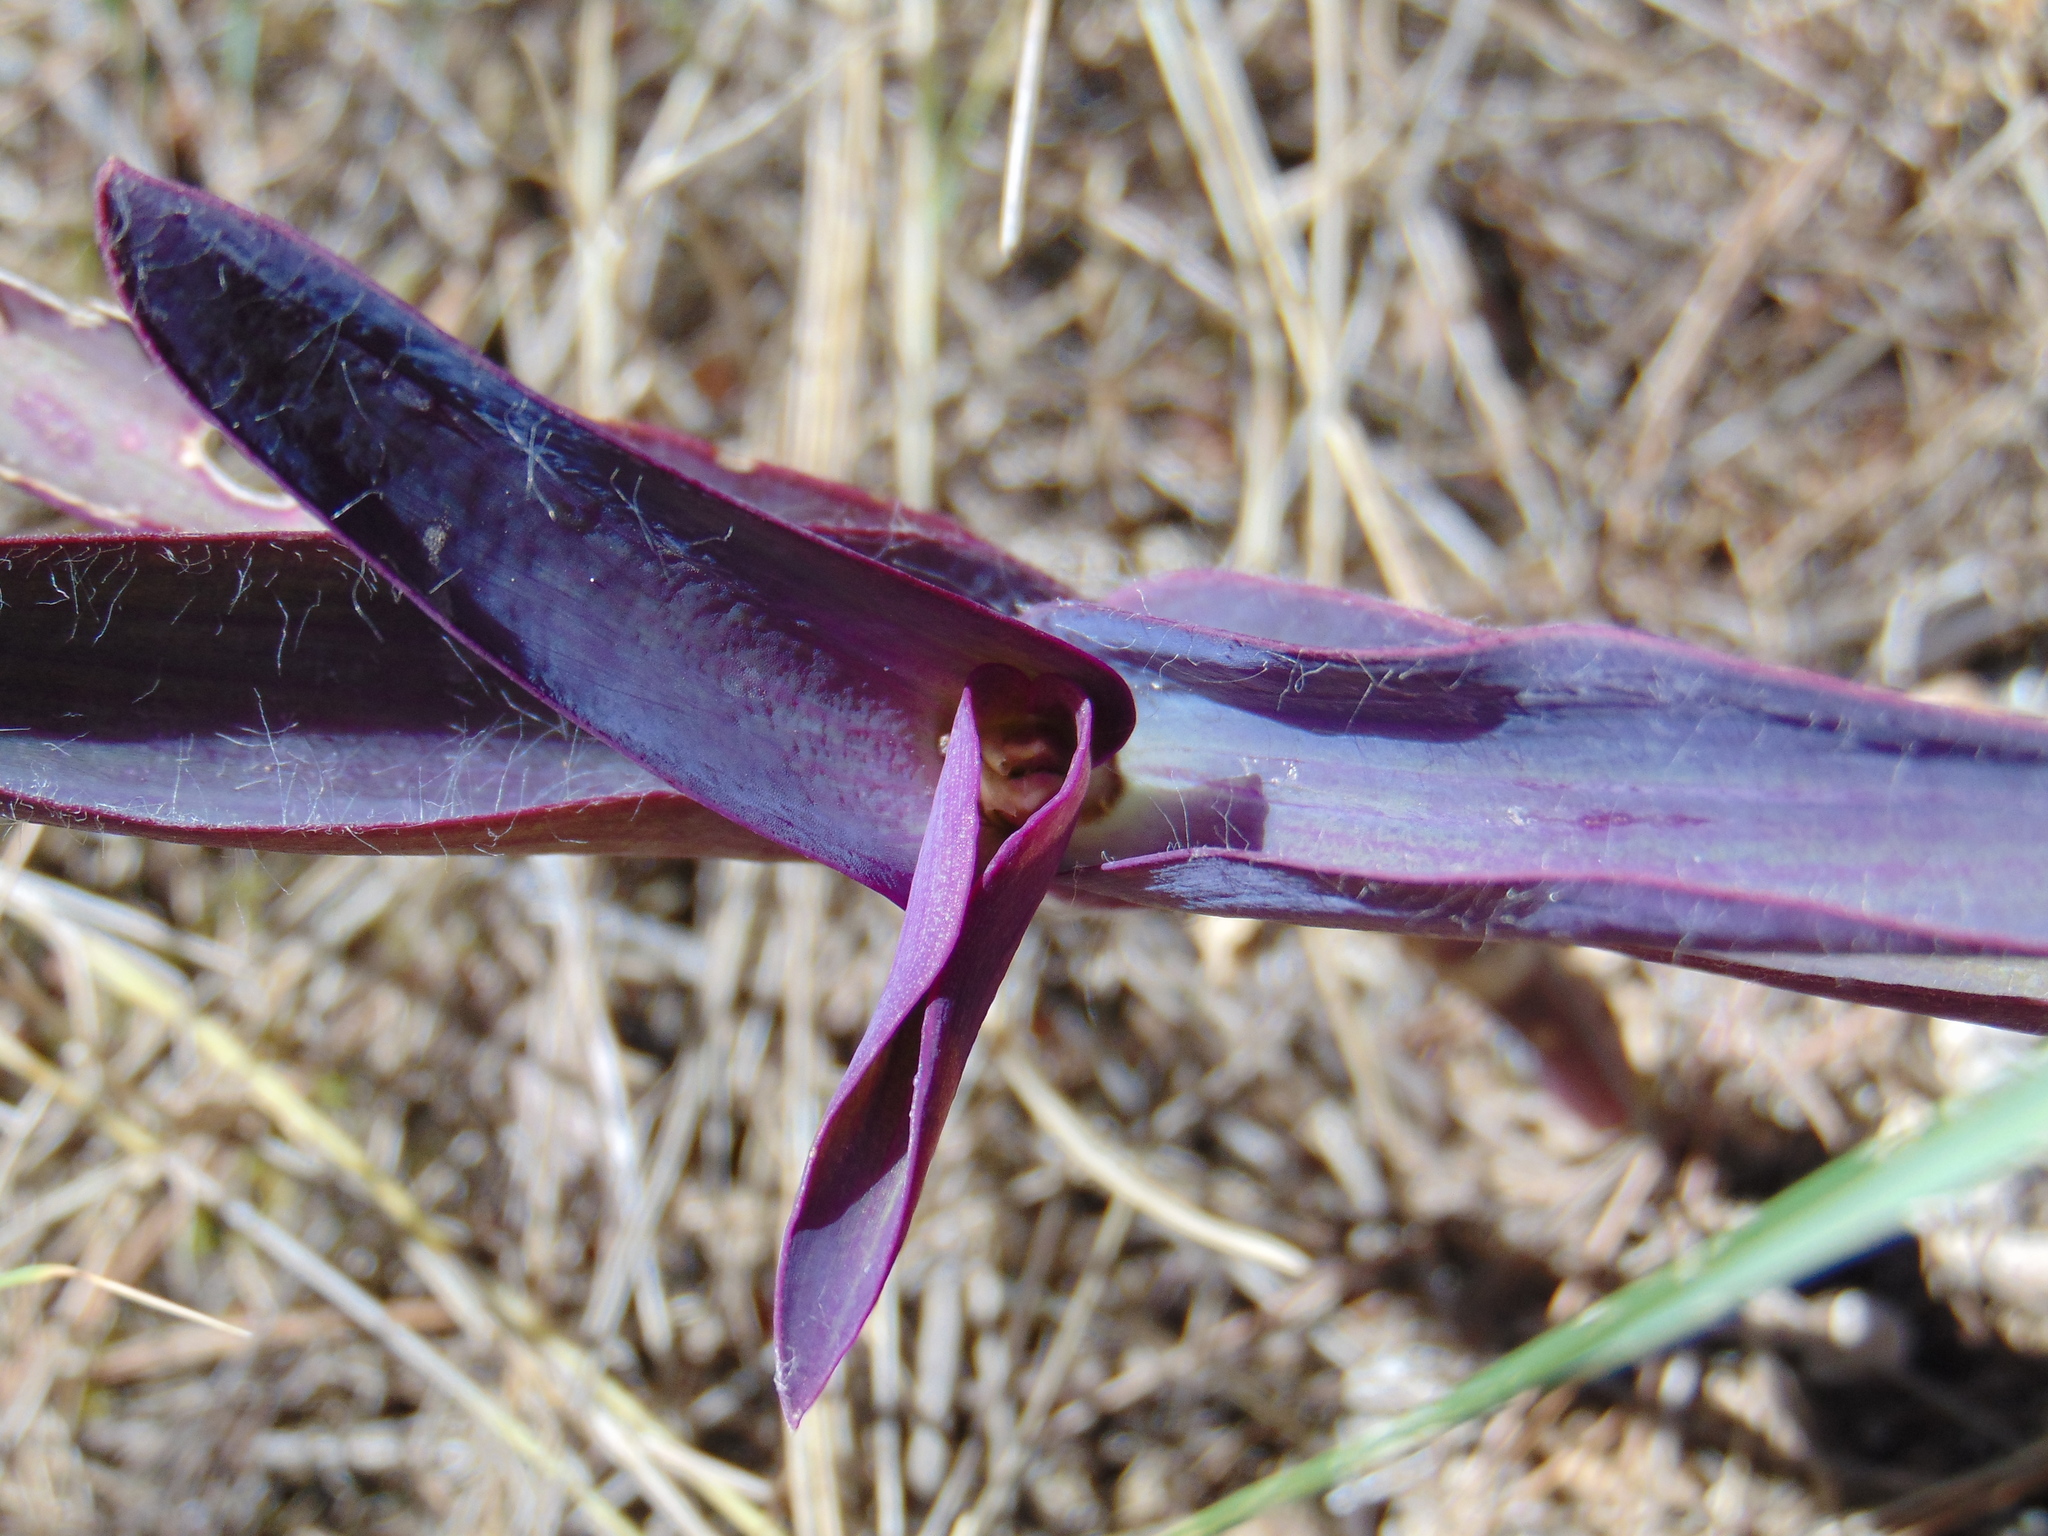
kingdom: Plantae
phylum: Tracheophyta
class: Liliopsida
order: Commelinales
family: Commelinaceae
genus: Tradescantia
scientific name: Tradescantia pallida
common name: Purpleheart
